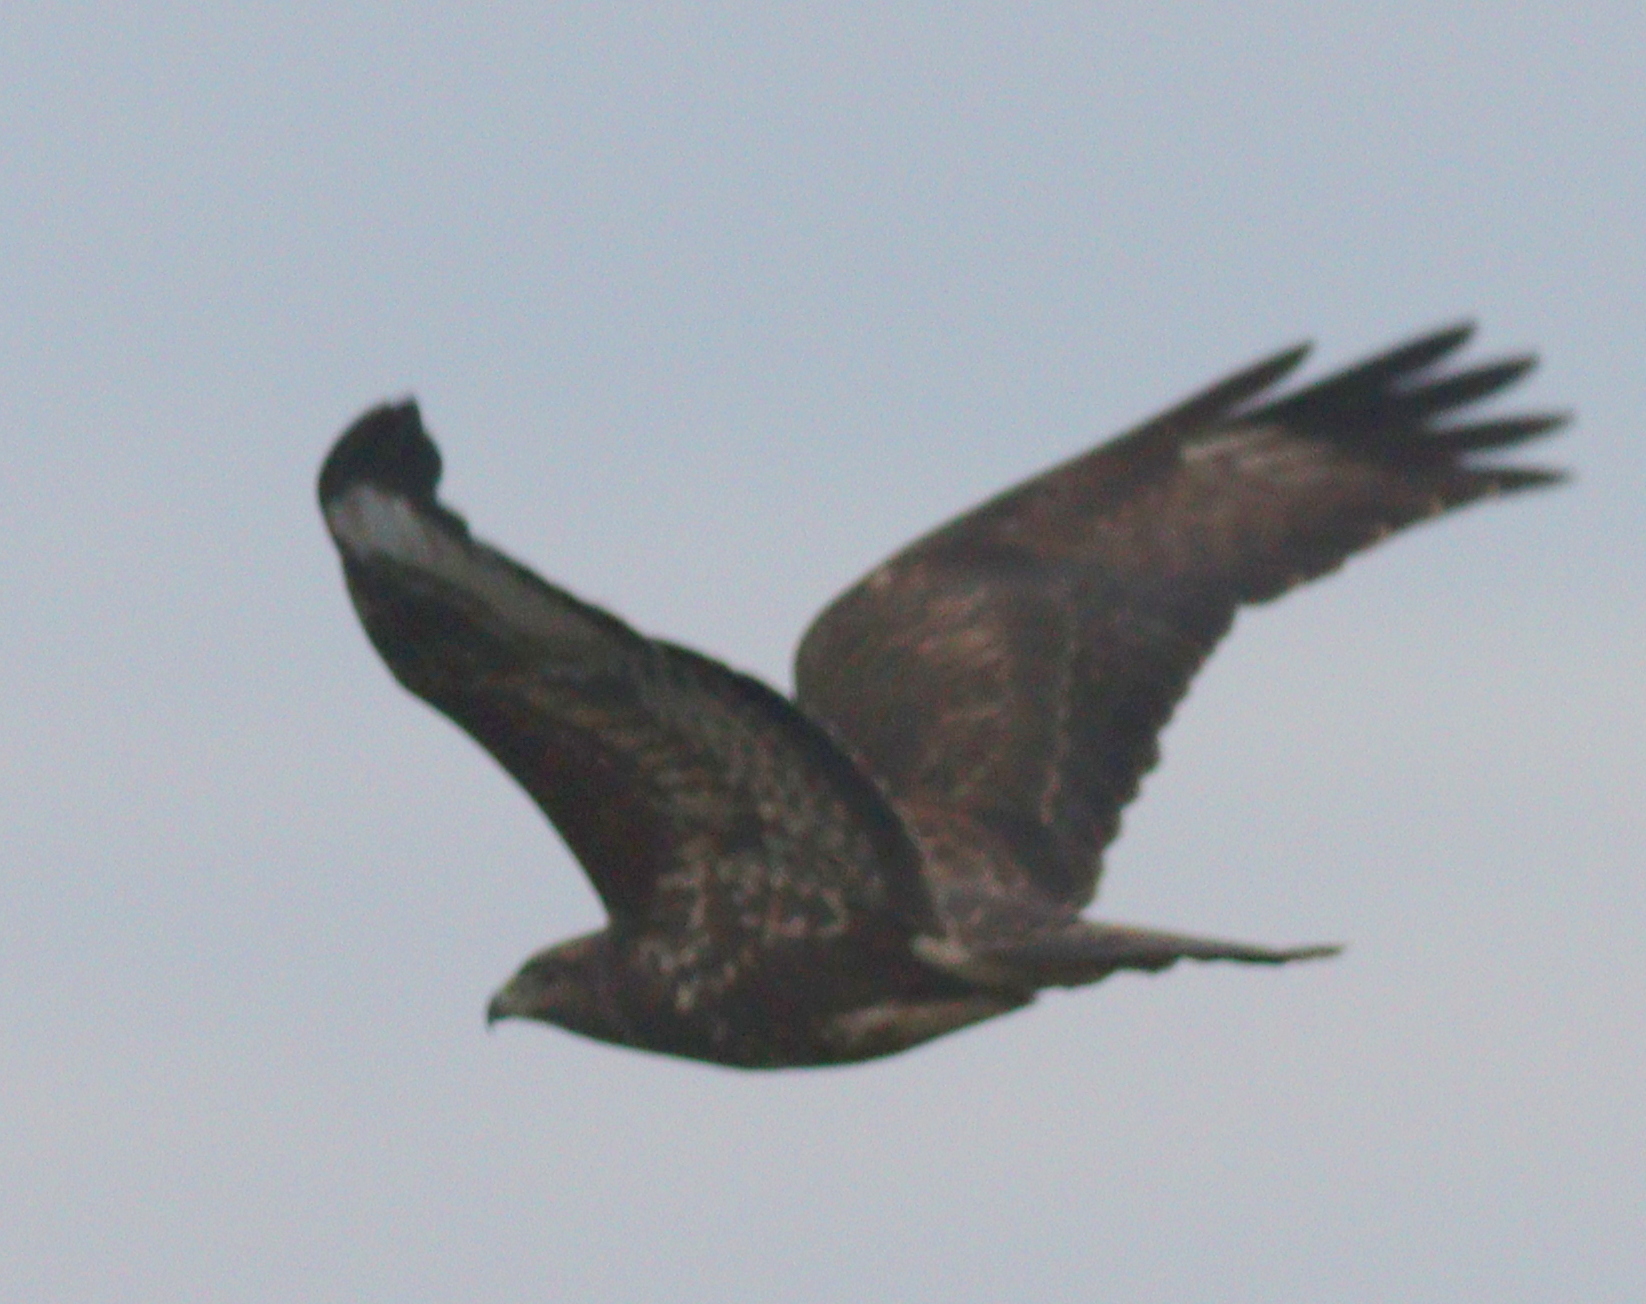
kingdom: Animalia
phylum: Chordata
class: Aves
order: Accipitriformes
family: Accipitridae
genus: Buteo
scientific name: Buteo buteo
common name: Common buzzard
